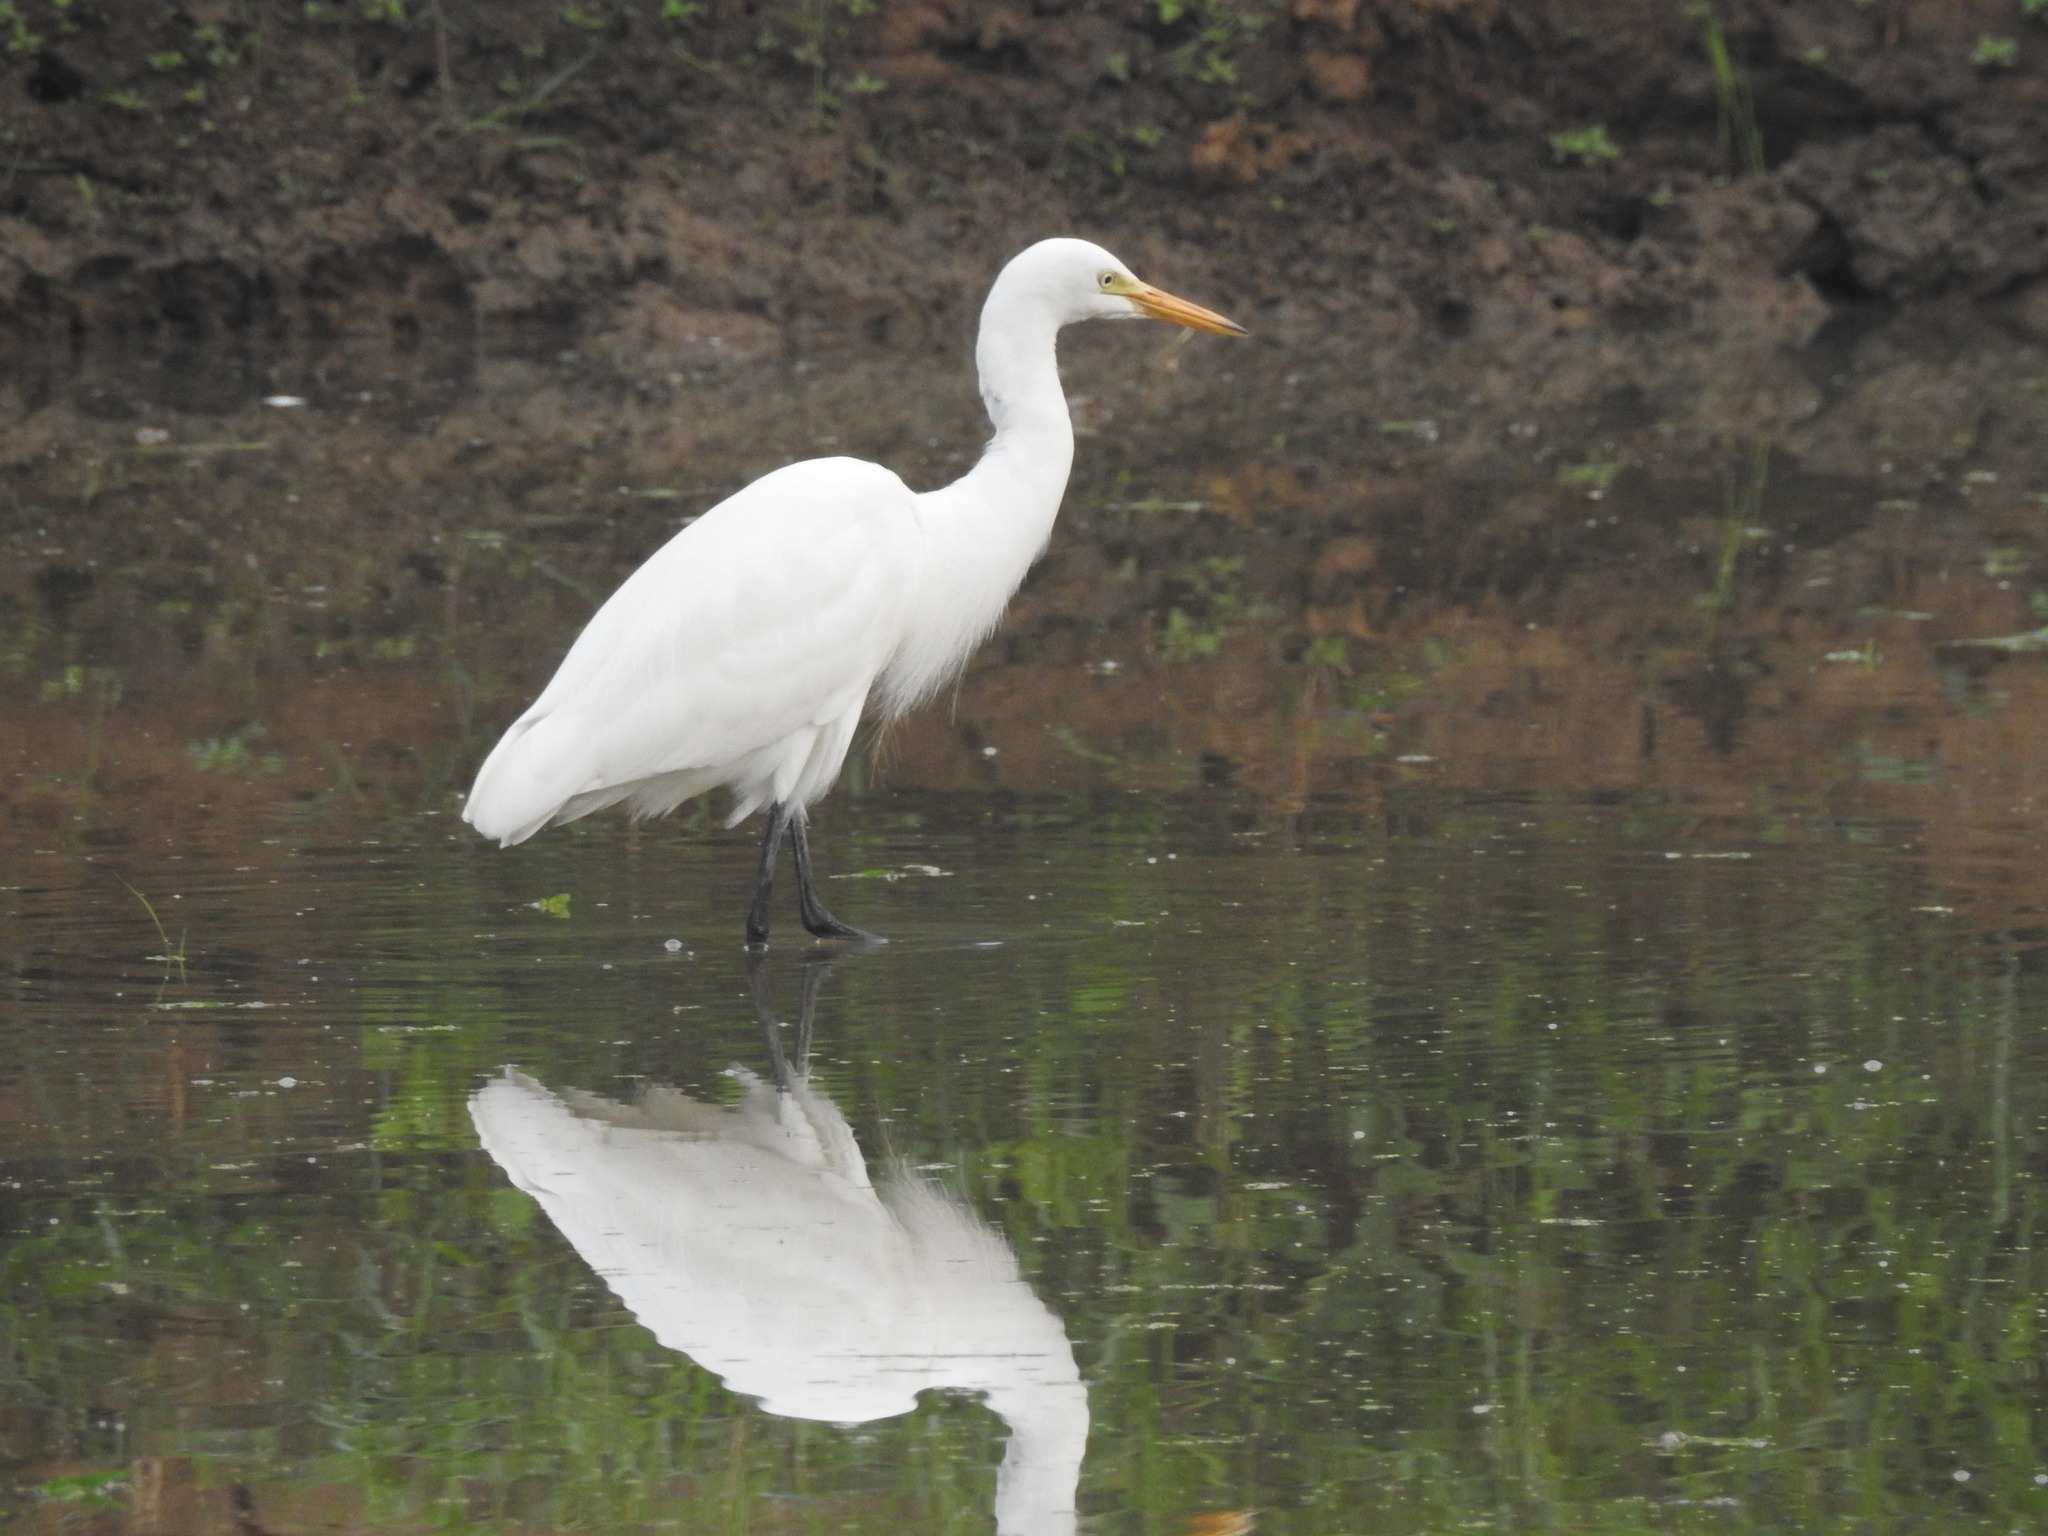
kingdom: Animalia
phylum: Chordata
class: Aves
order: Pelecaniformes
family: Ardeidae
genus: Egretta
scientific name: Egretta intermedia
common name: Intermediate egret
